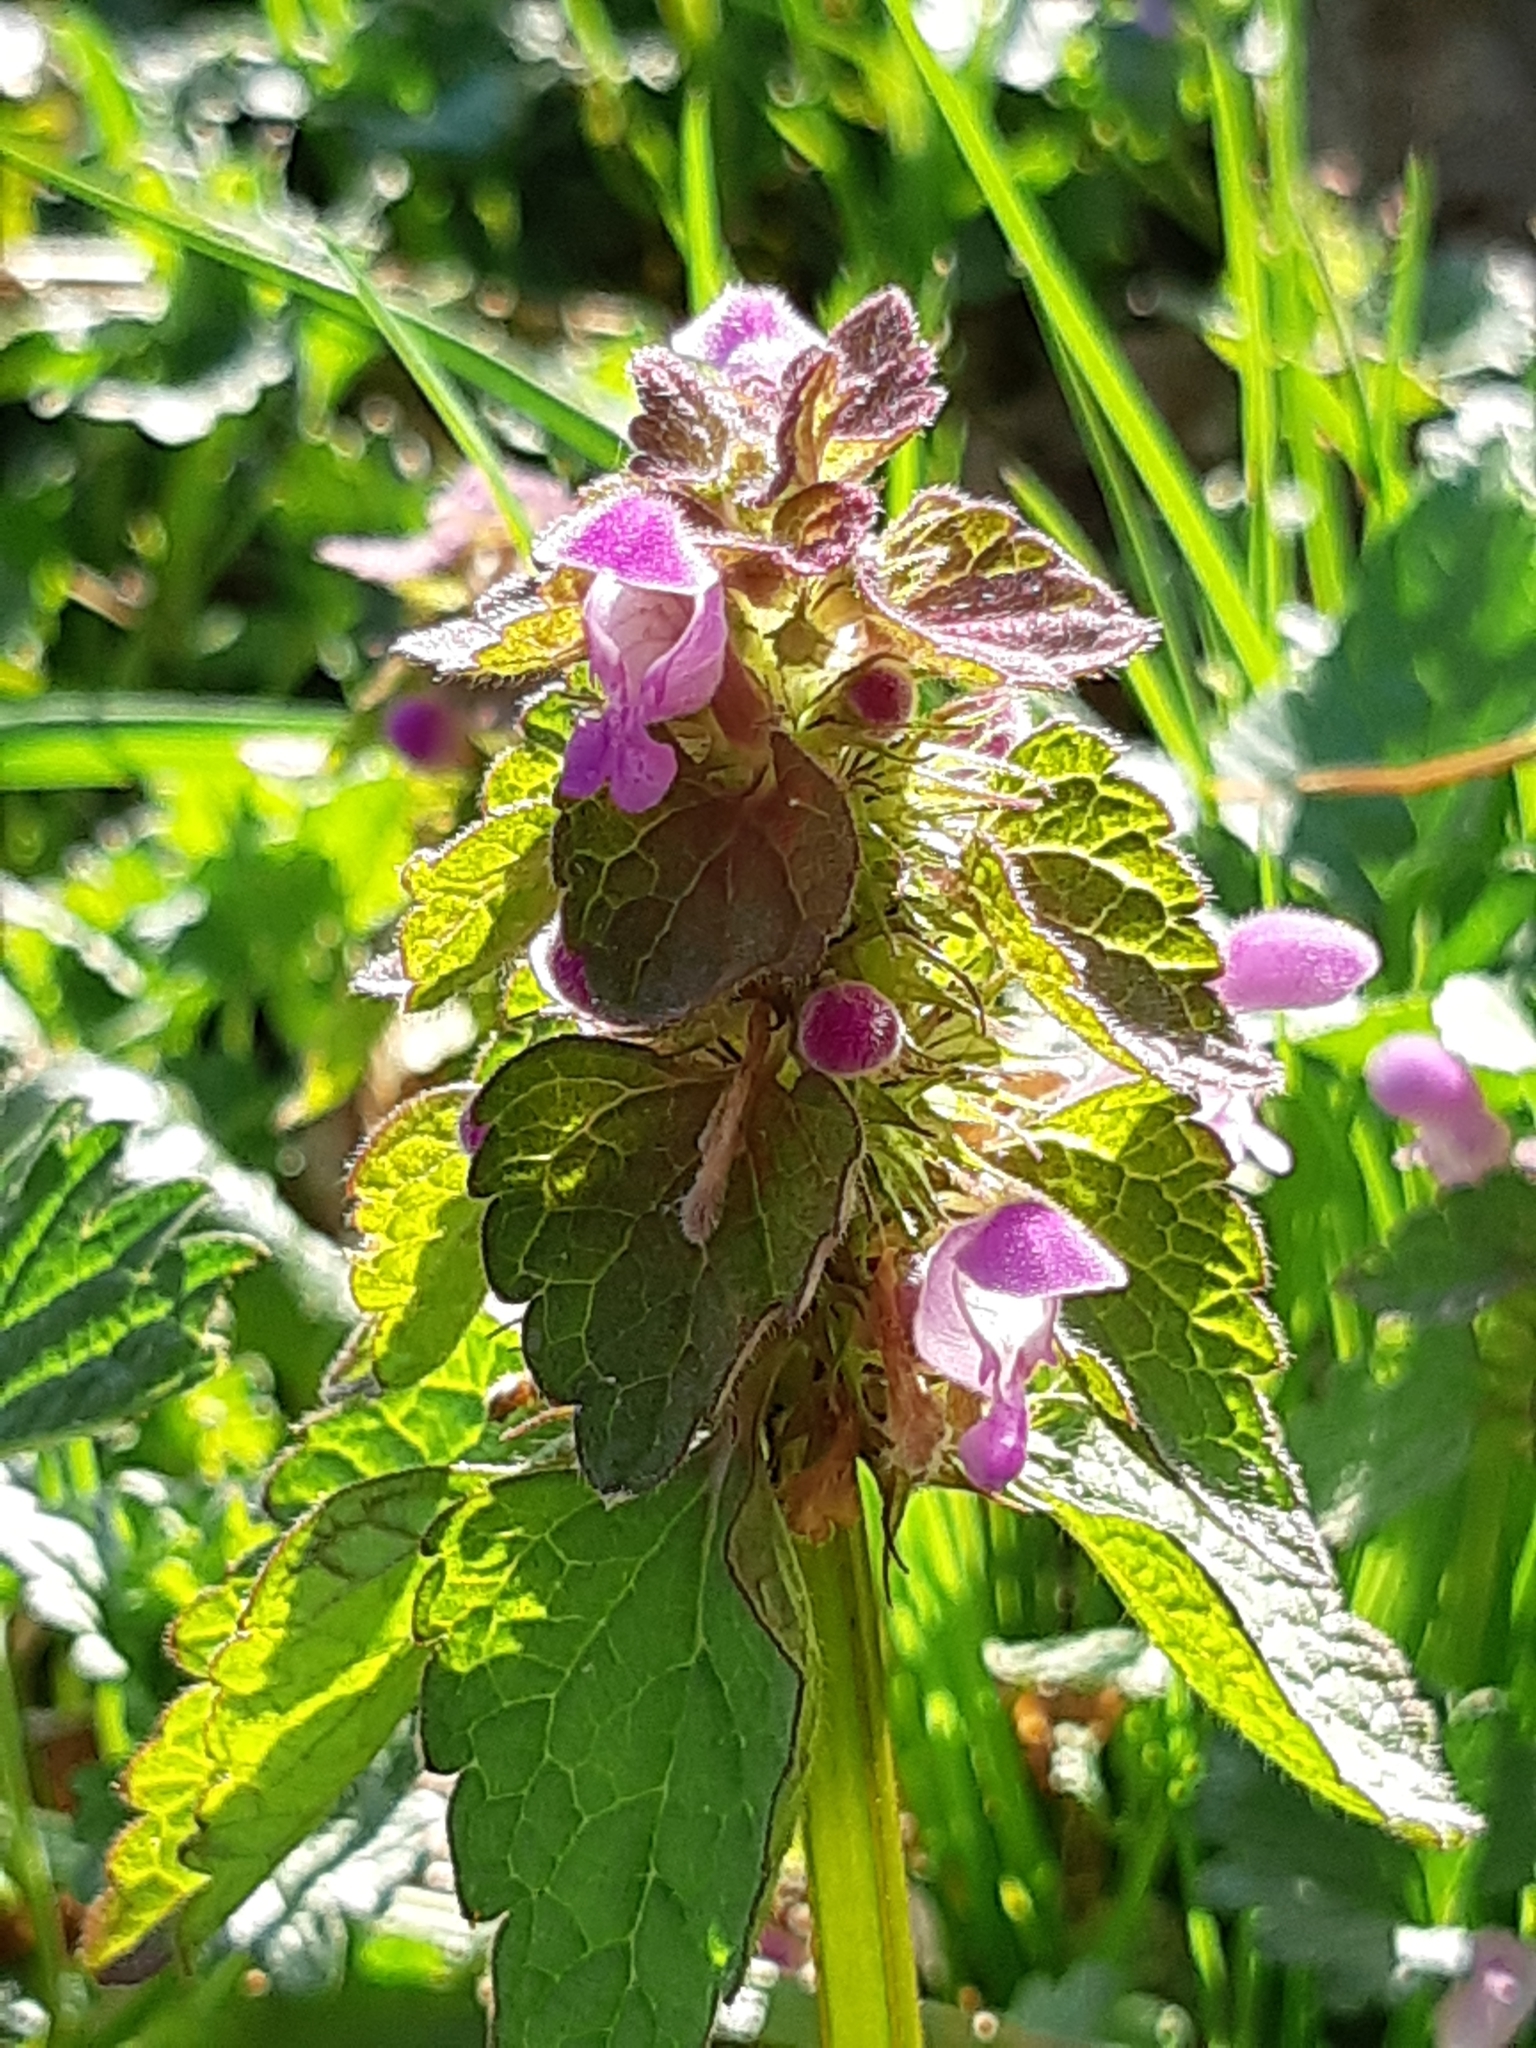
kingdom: Plantae
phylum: Tracheophyta
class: Magnoliopsida
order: Lamiales
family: Lamiaceae
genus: Lamium
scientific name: Lamium purpureum
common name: Red dead-nettle
